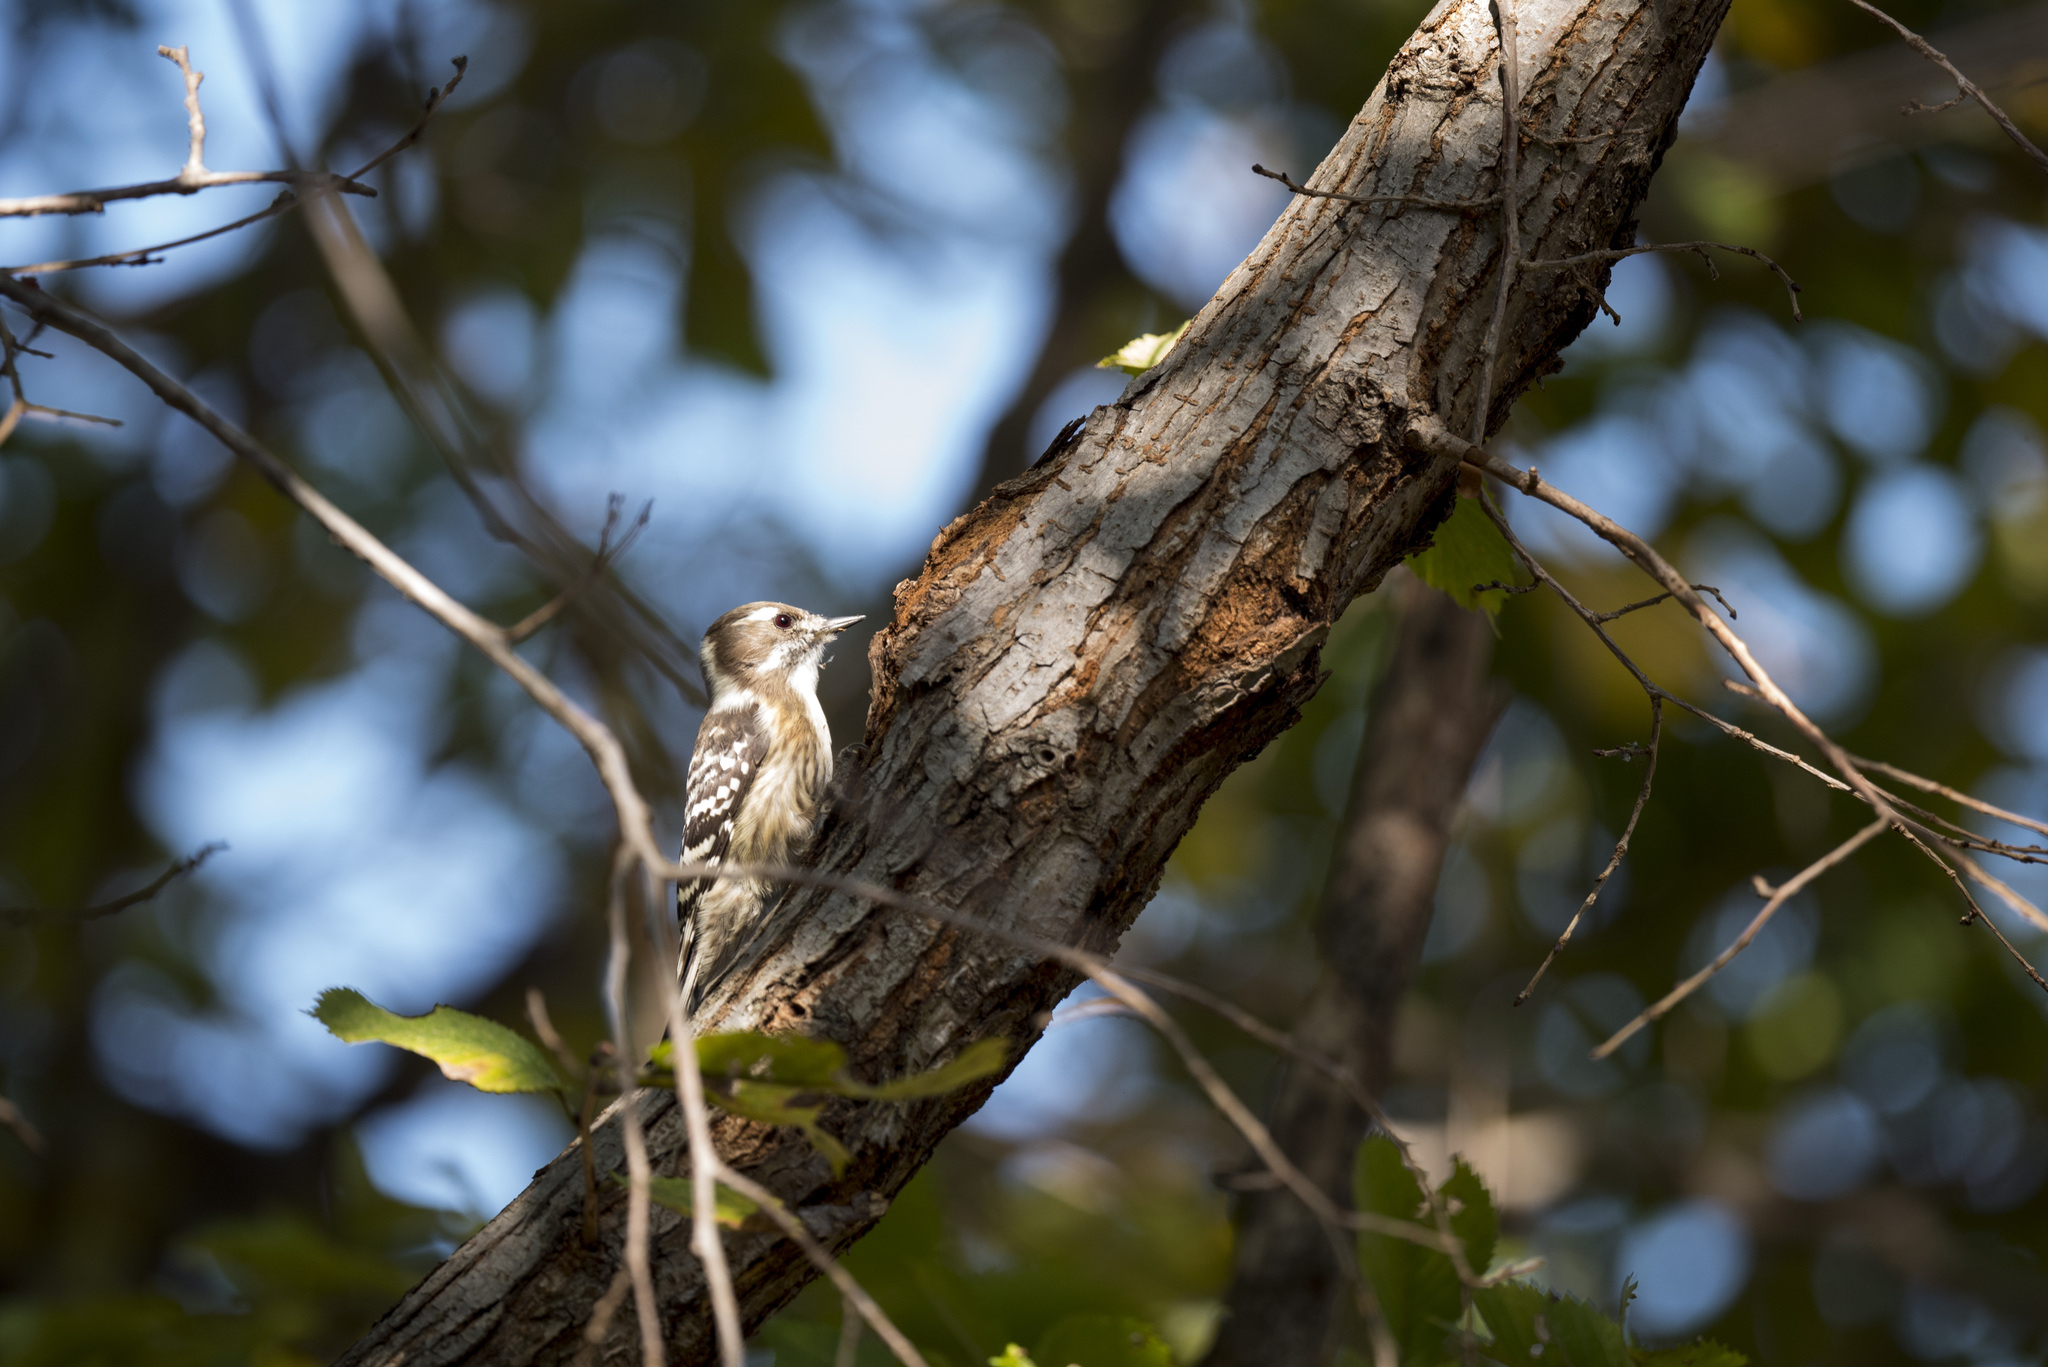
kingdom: Animalia
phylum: Chordata
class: Aves
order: Piciformes
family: Picidae
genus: Yungipicus
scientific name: Yungipicus kizuki
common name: Japanese pygmy woodpecker
